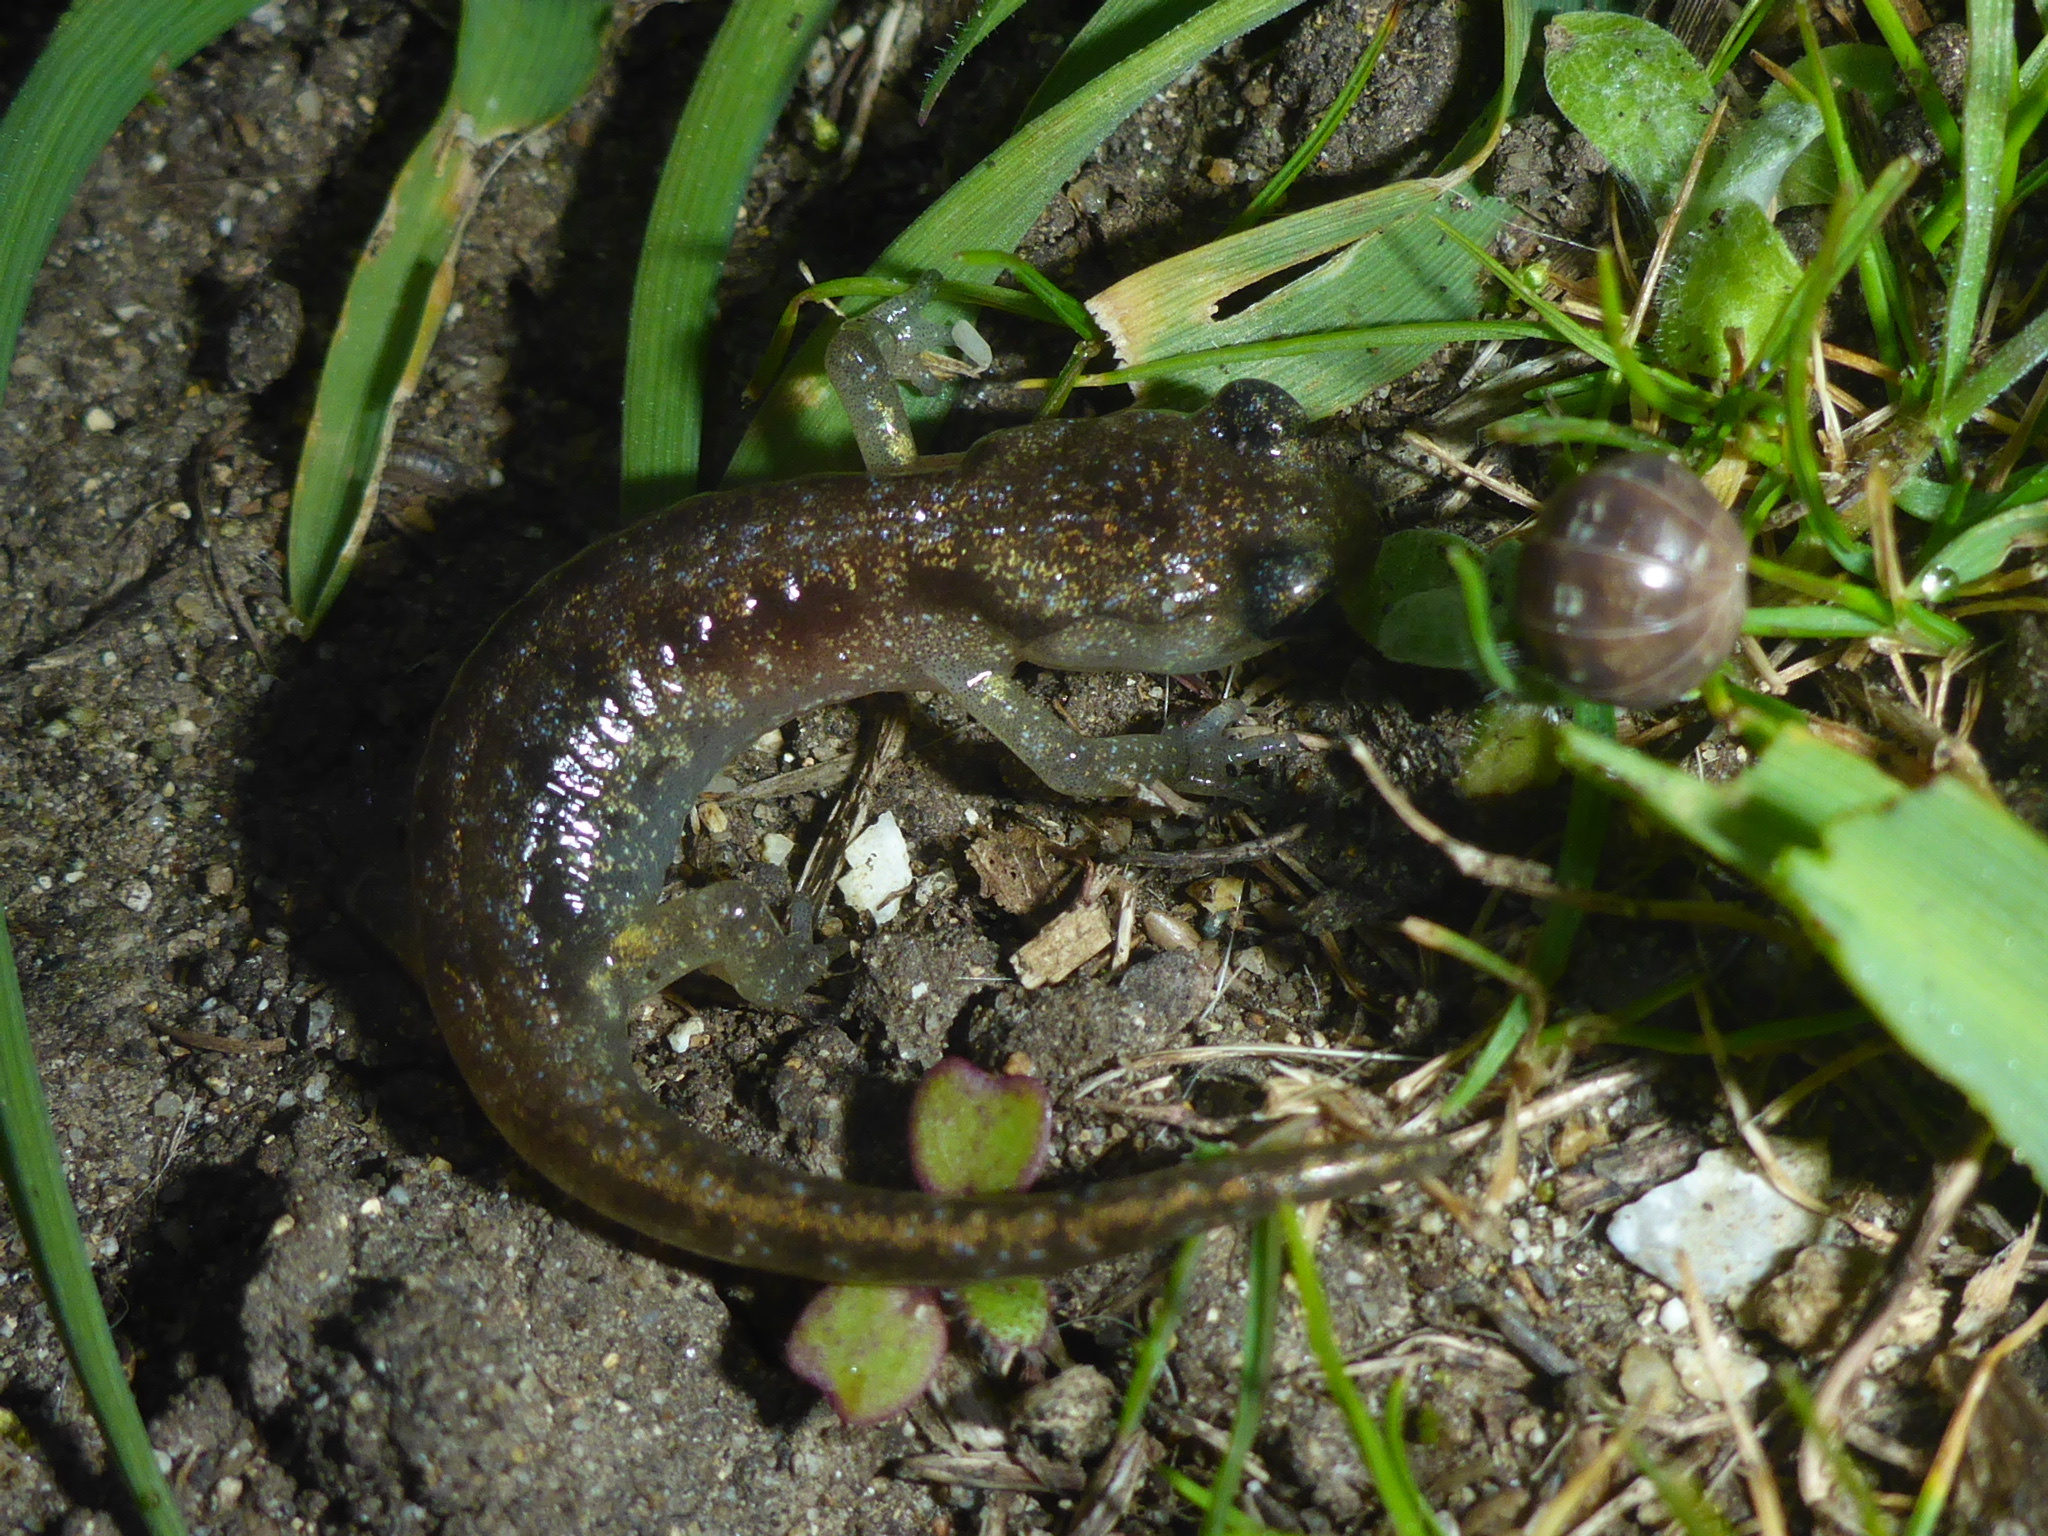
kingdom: Animalia
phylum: Chordata
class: Amphibia
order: Caudata
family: Plethodontidae
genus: Aneides
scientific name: Aneides lugubris
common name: Arboreal salamander
